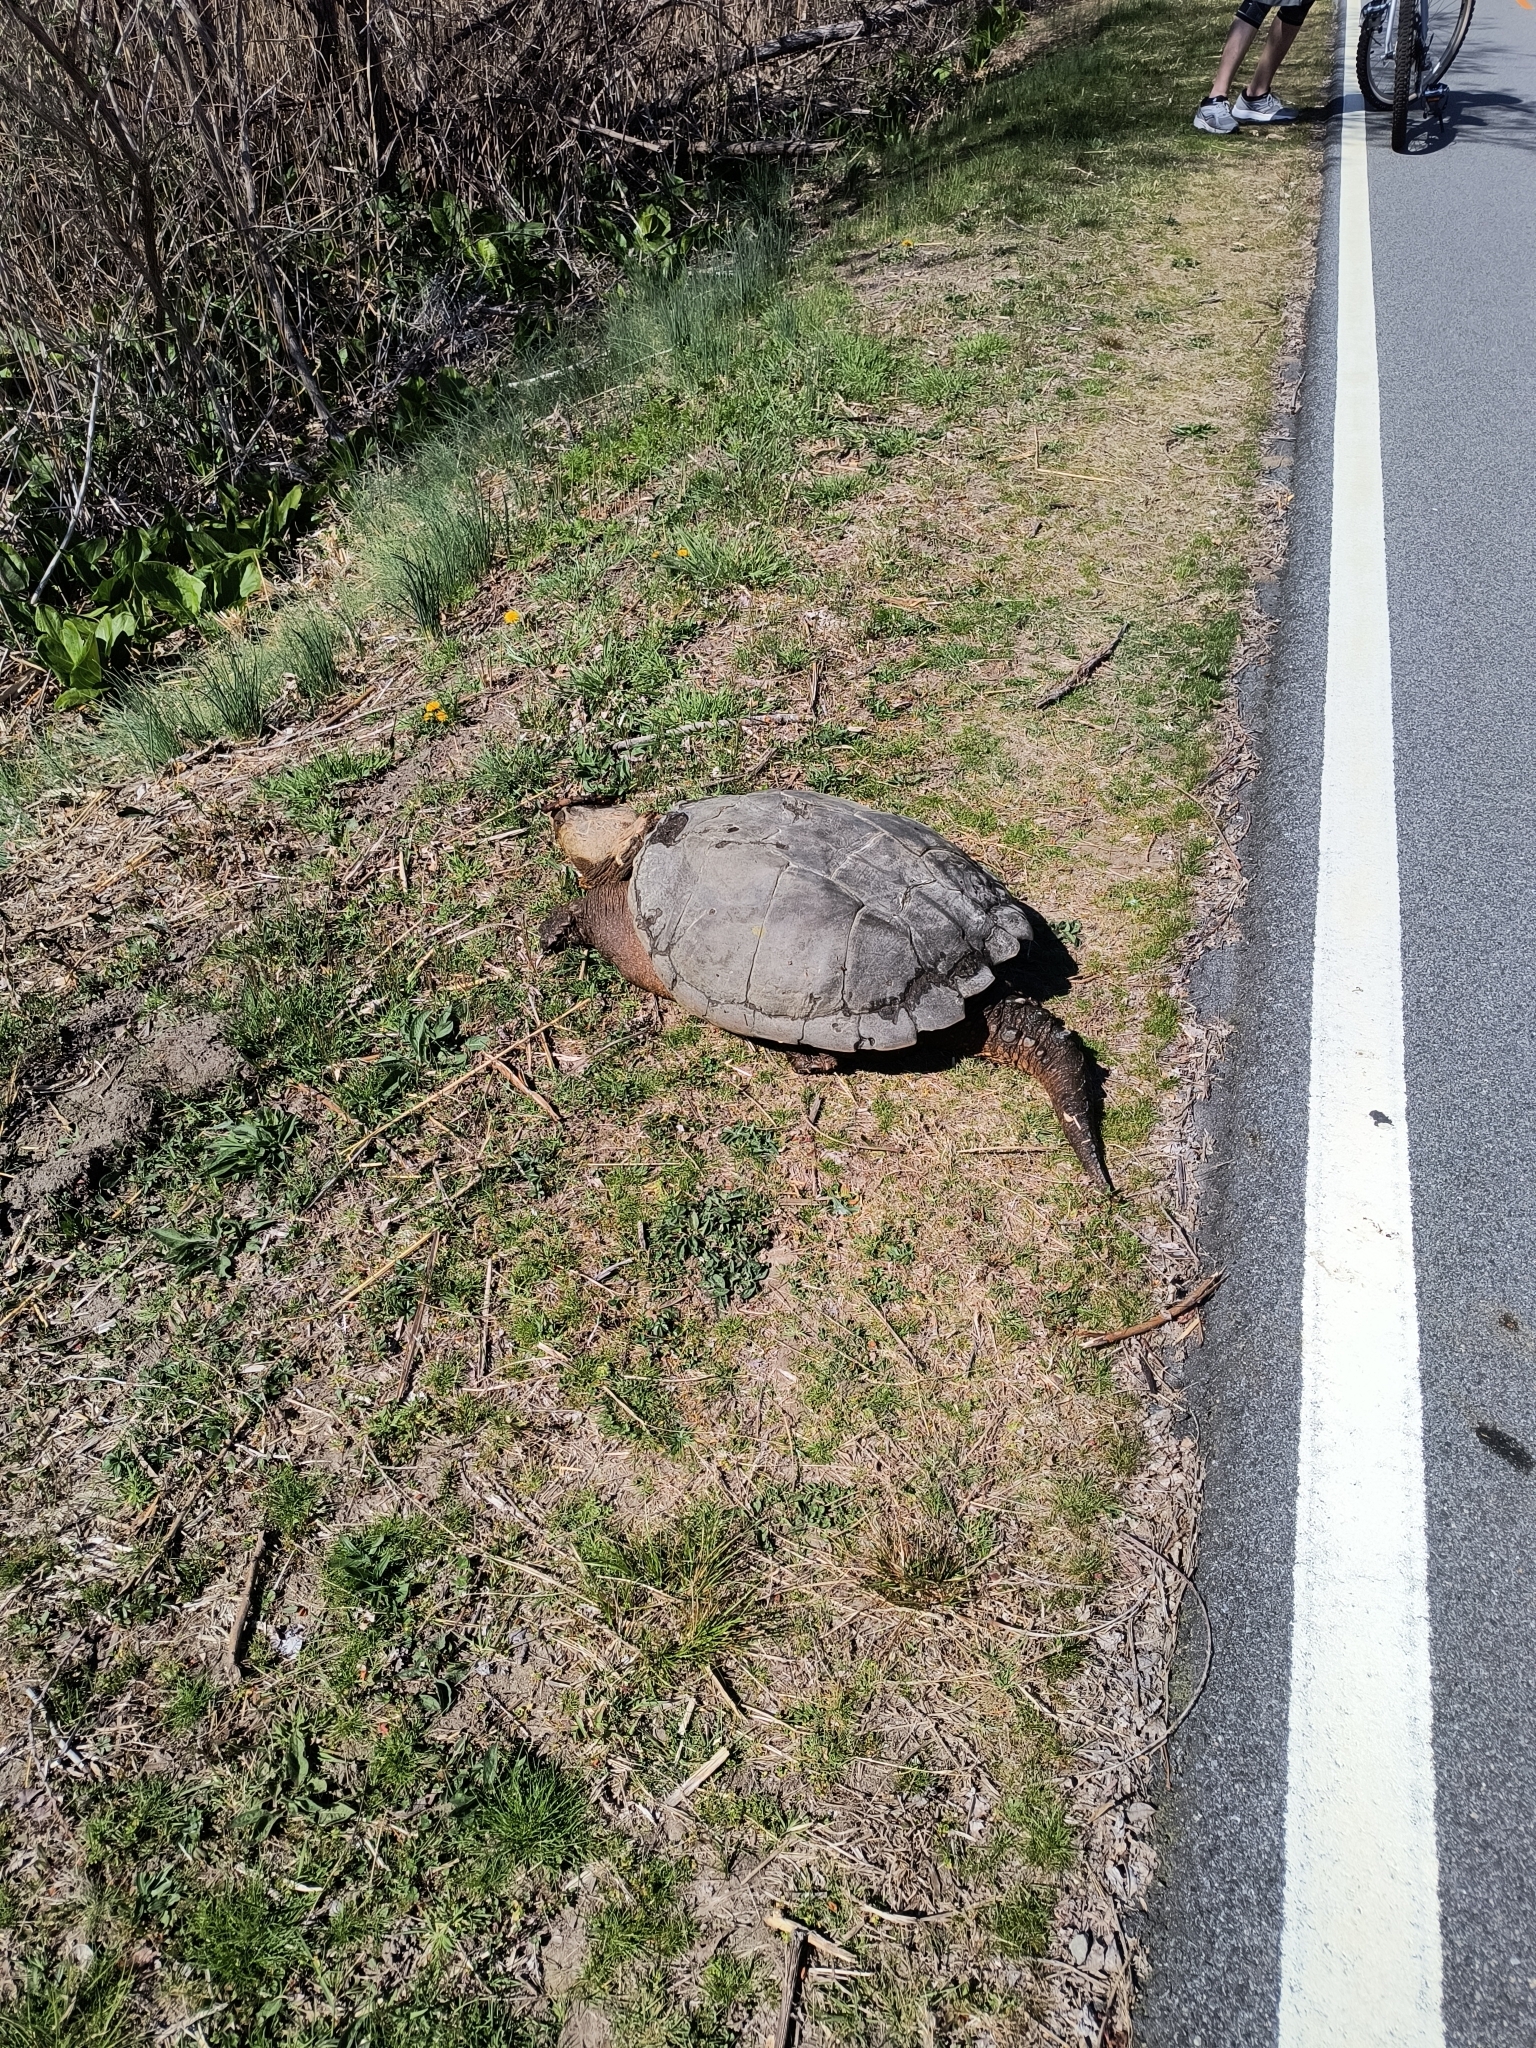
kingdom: Animalia
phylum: Chordata
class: Testudines
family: Chelydridae
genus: Chelydra
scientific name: Chelydra serpentina
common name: Common snapping turtle
